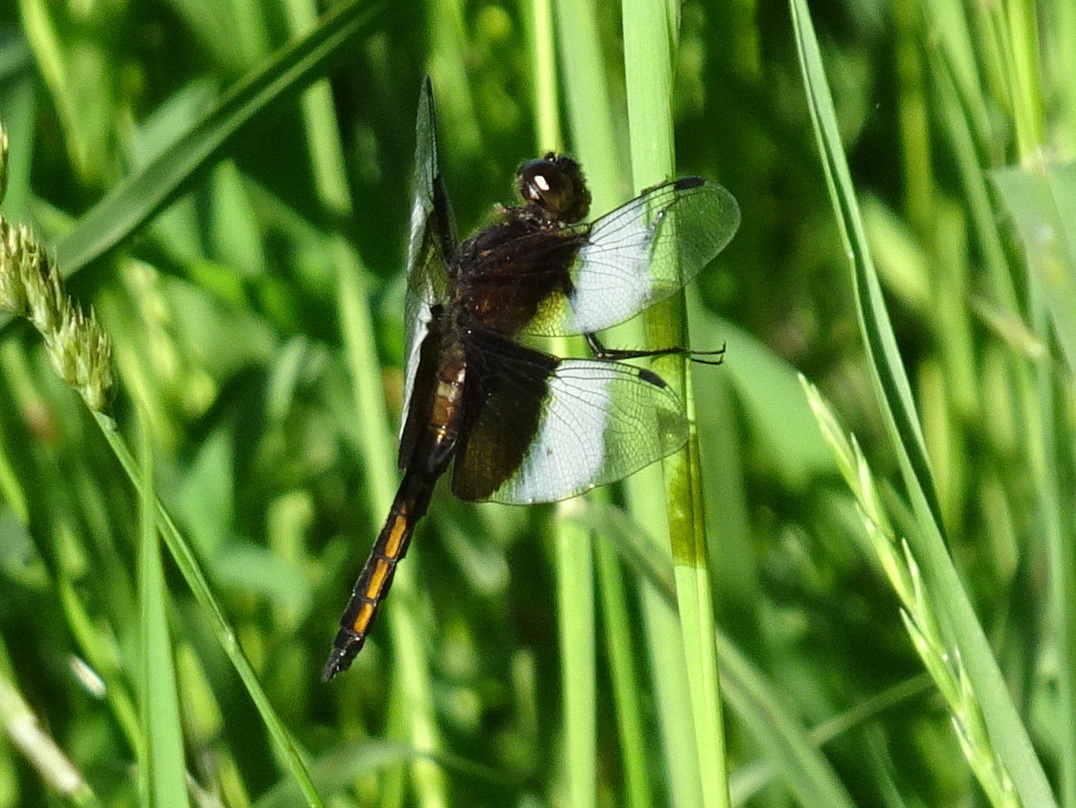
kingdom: Animalia
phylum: Arthropoda
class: Insecta
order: Odonata
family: Libellulidae
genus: Libellula
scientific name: Libellula luctuosa
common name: Widow skimmer
